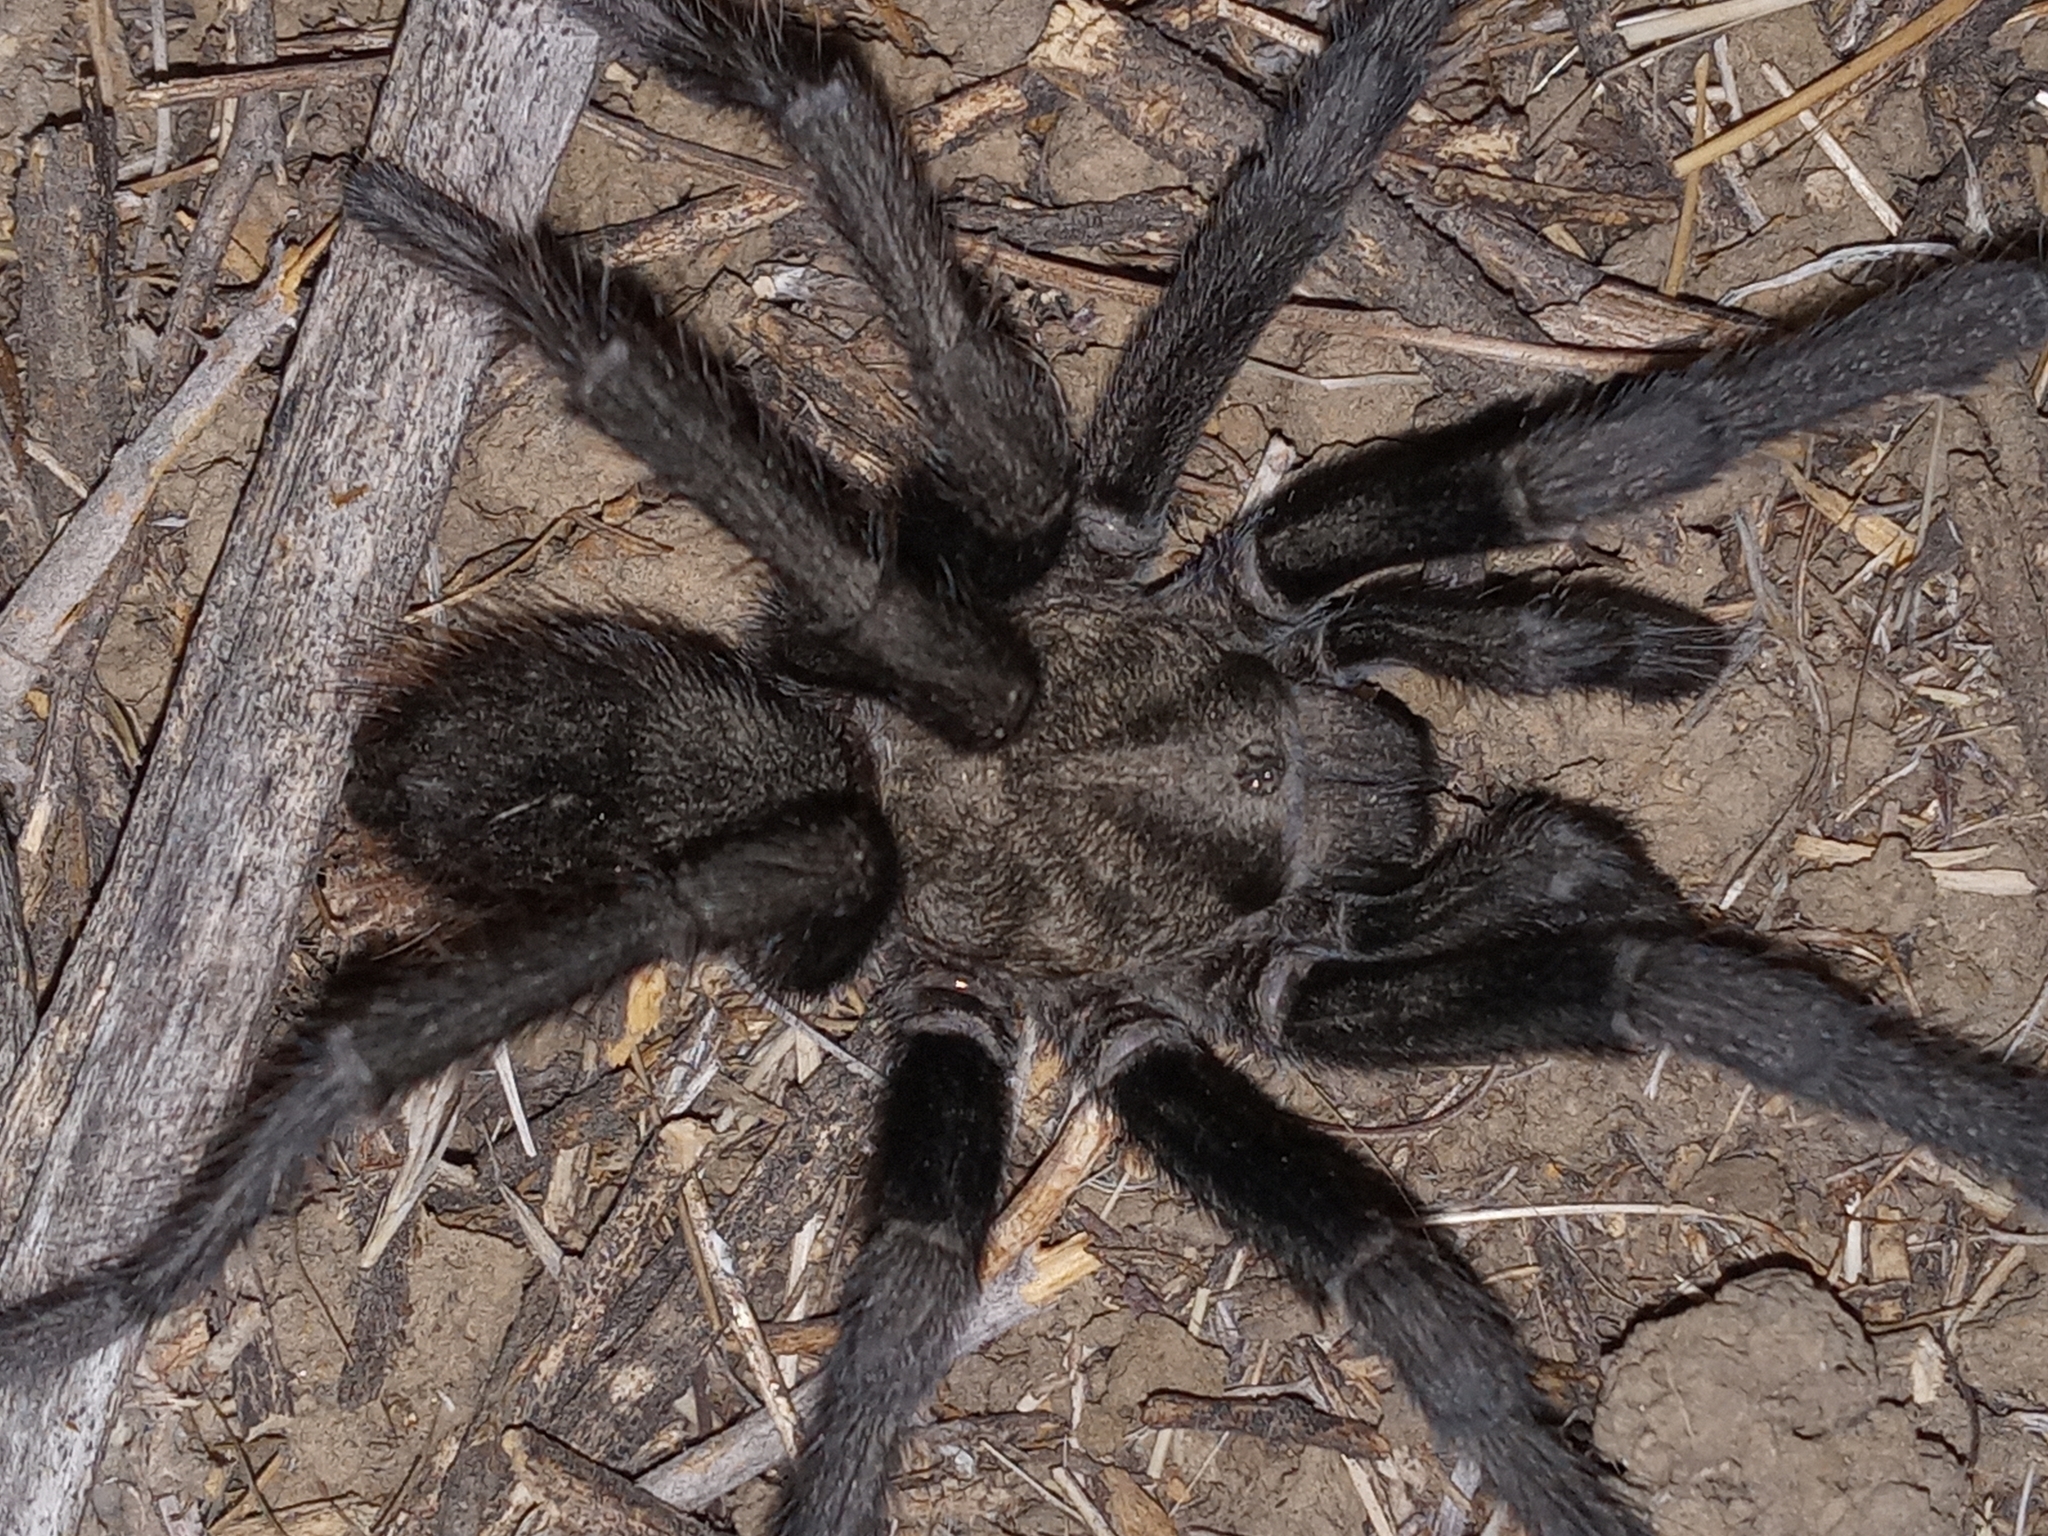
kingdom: Animalia
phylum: Arthropoda
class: Arachnida
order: Araneae
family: Theraphosidae
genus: Aphonopelma
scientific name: Aphonopelma steindachneri
